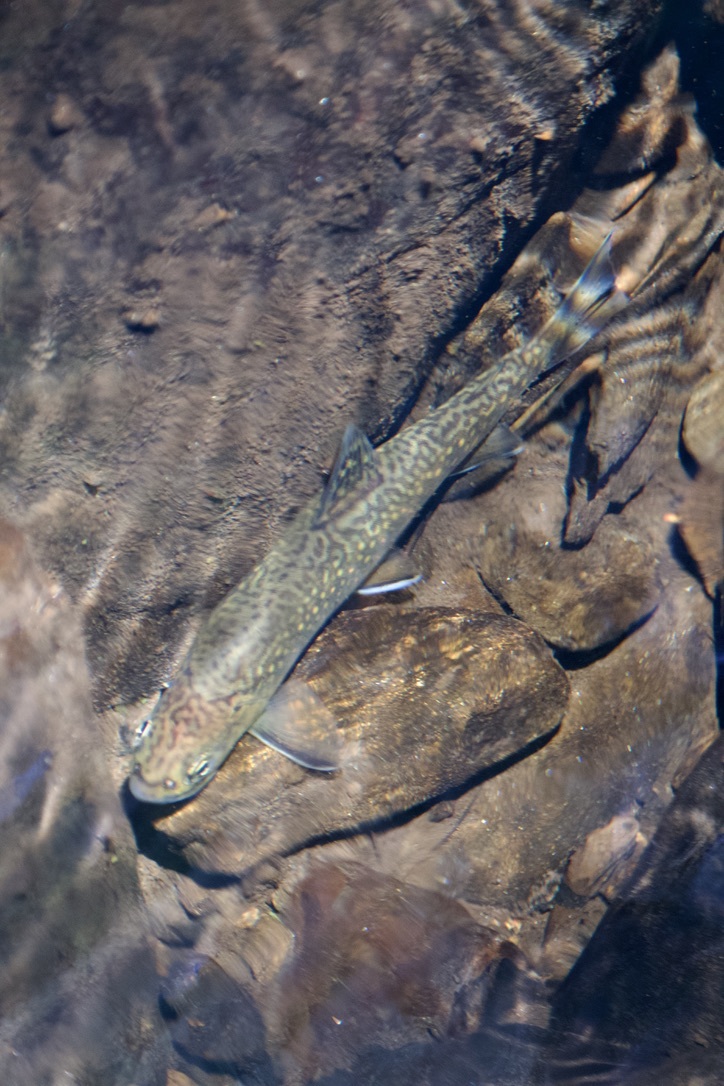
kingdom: Animalia
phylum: Chordata
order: Salmoniformes
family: Salmonidae
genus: Salvelinus
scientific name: Salvelinus fontinalis
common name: Brook trout
